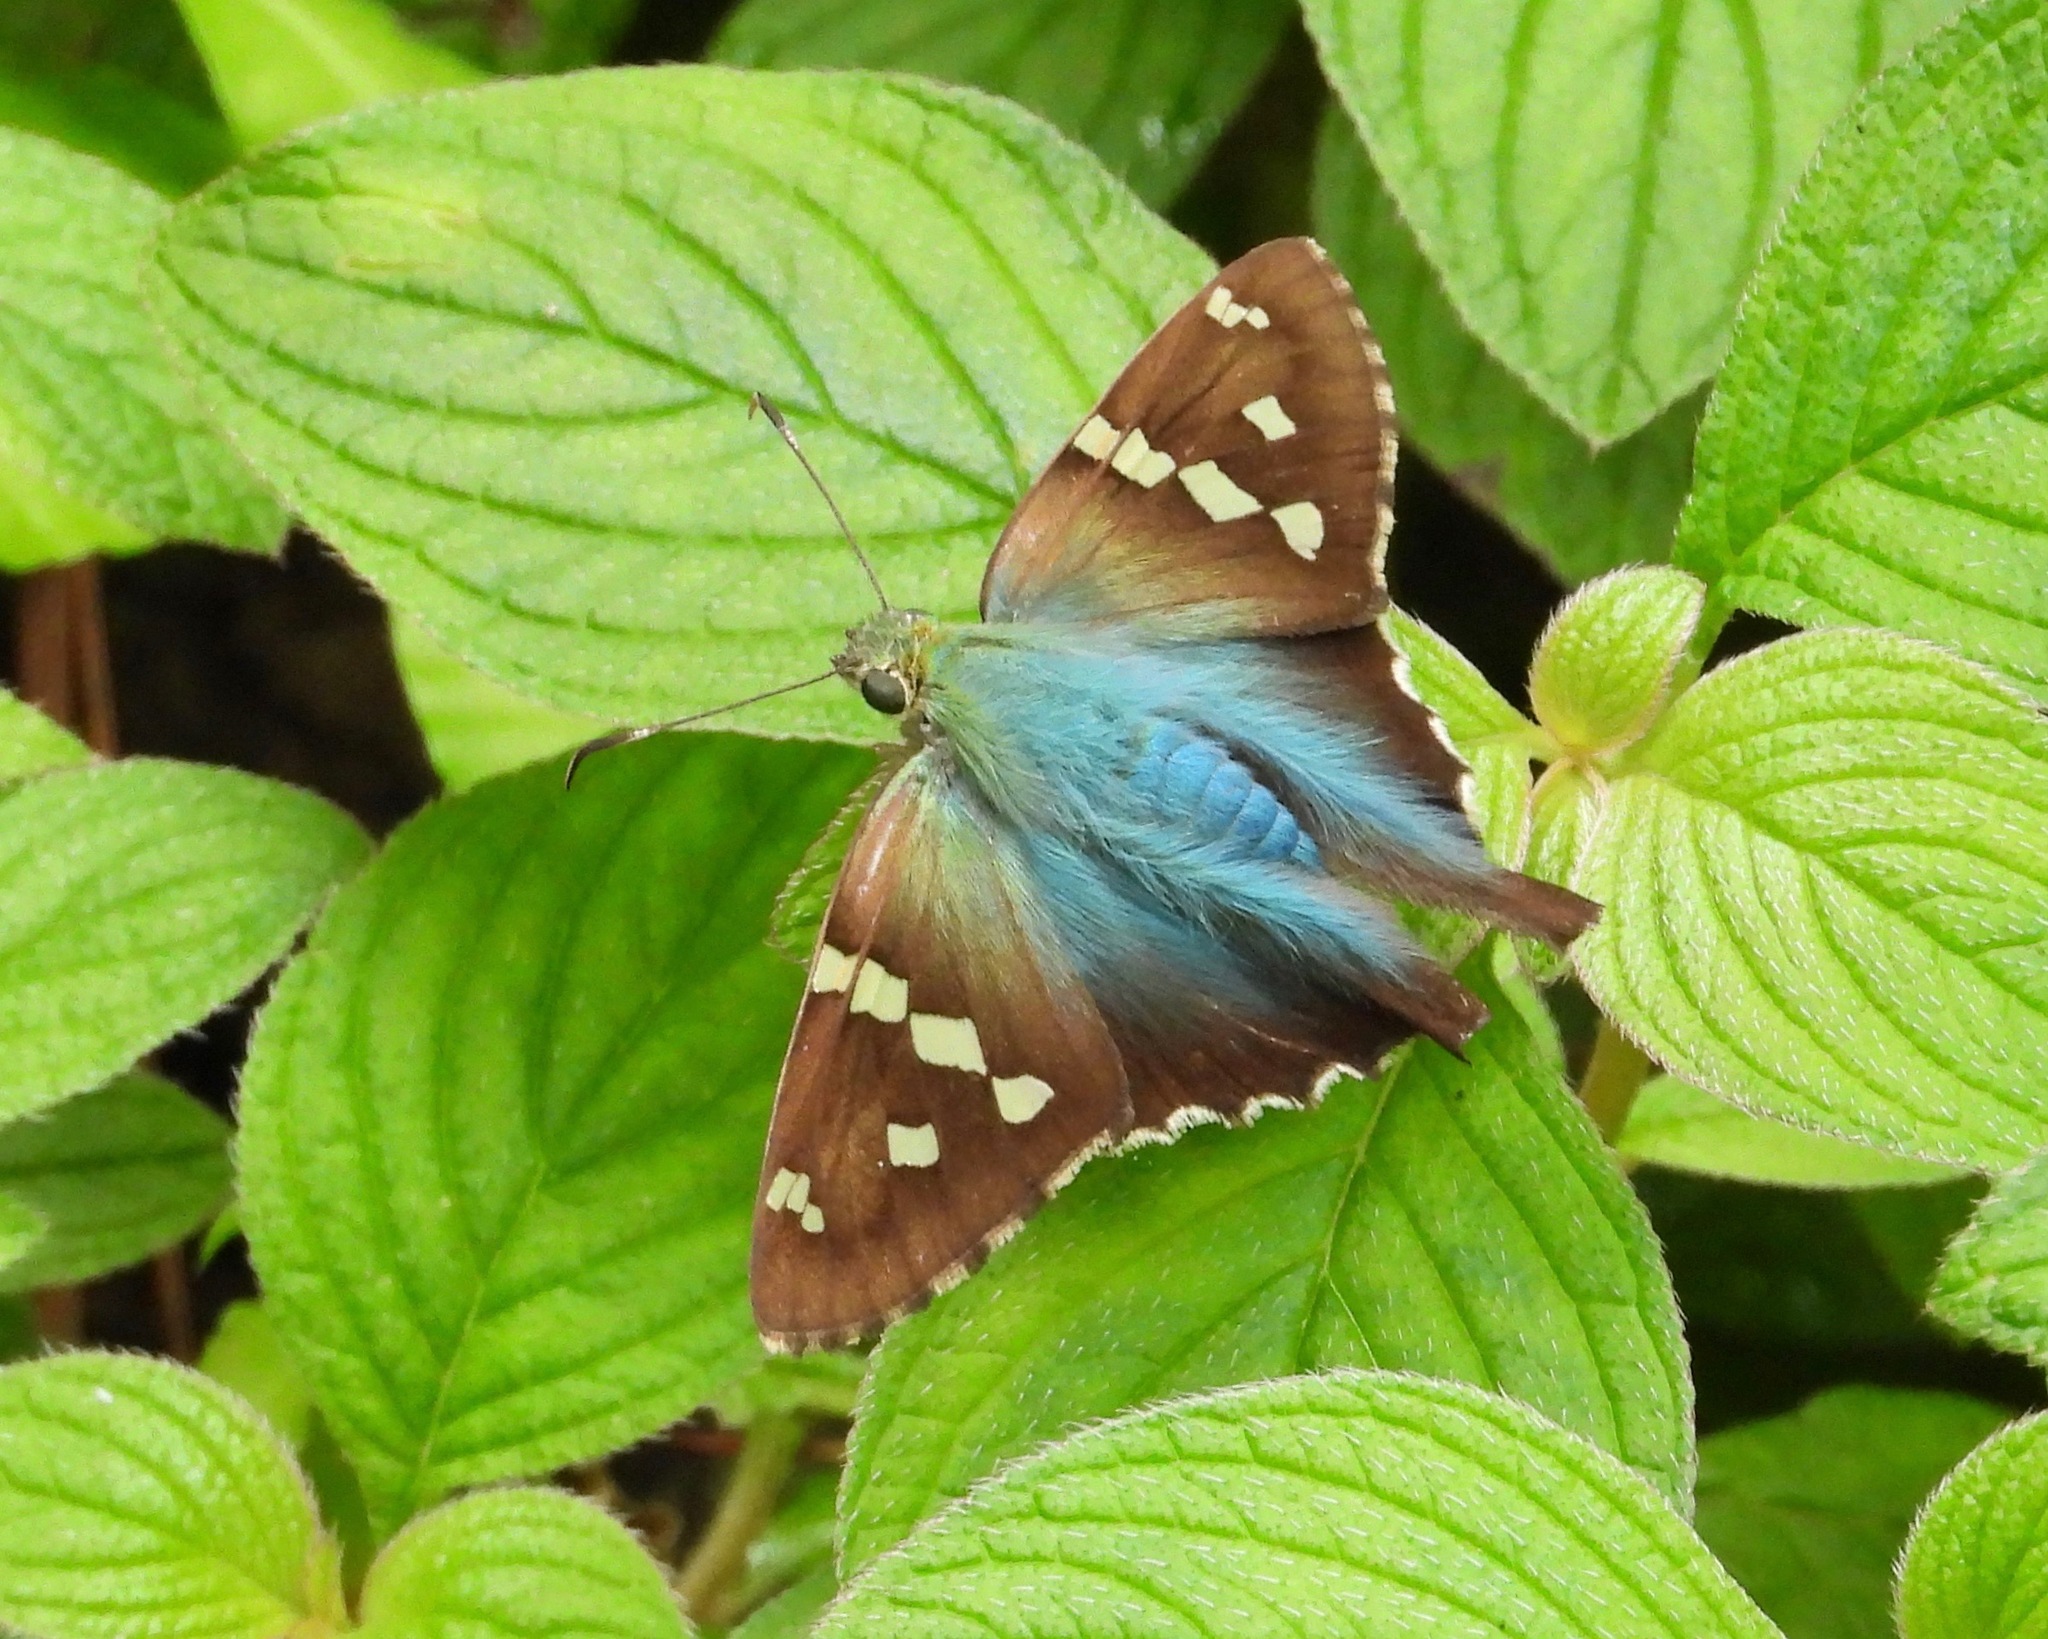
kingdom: Animalia
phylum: Arthropoda
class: Insecta
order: Lepidoptera
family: Hesperiidae
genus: Urbanus
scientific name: Urbanus proteus
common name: Long-tailed skipper
